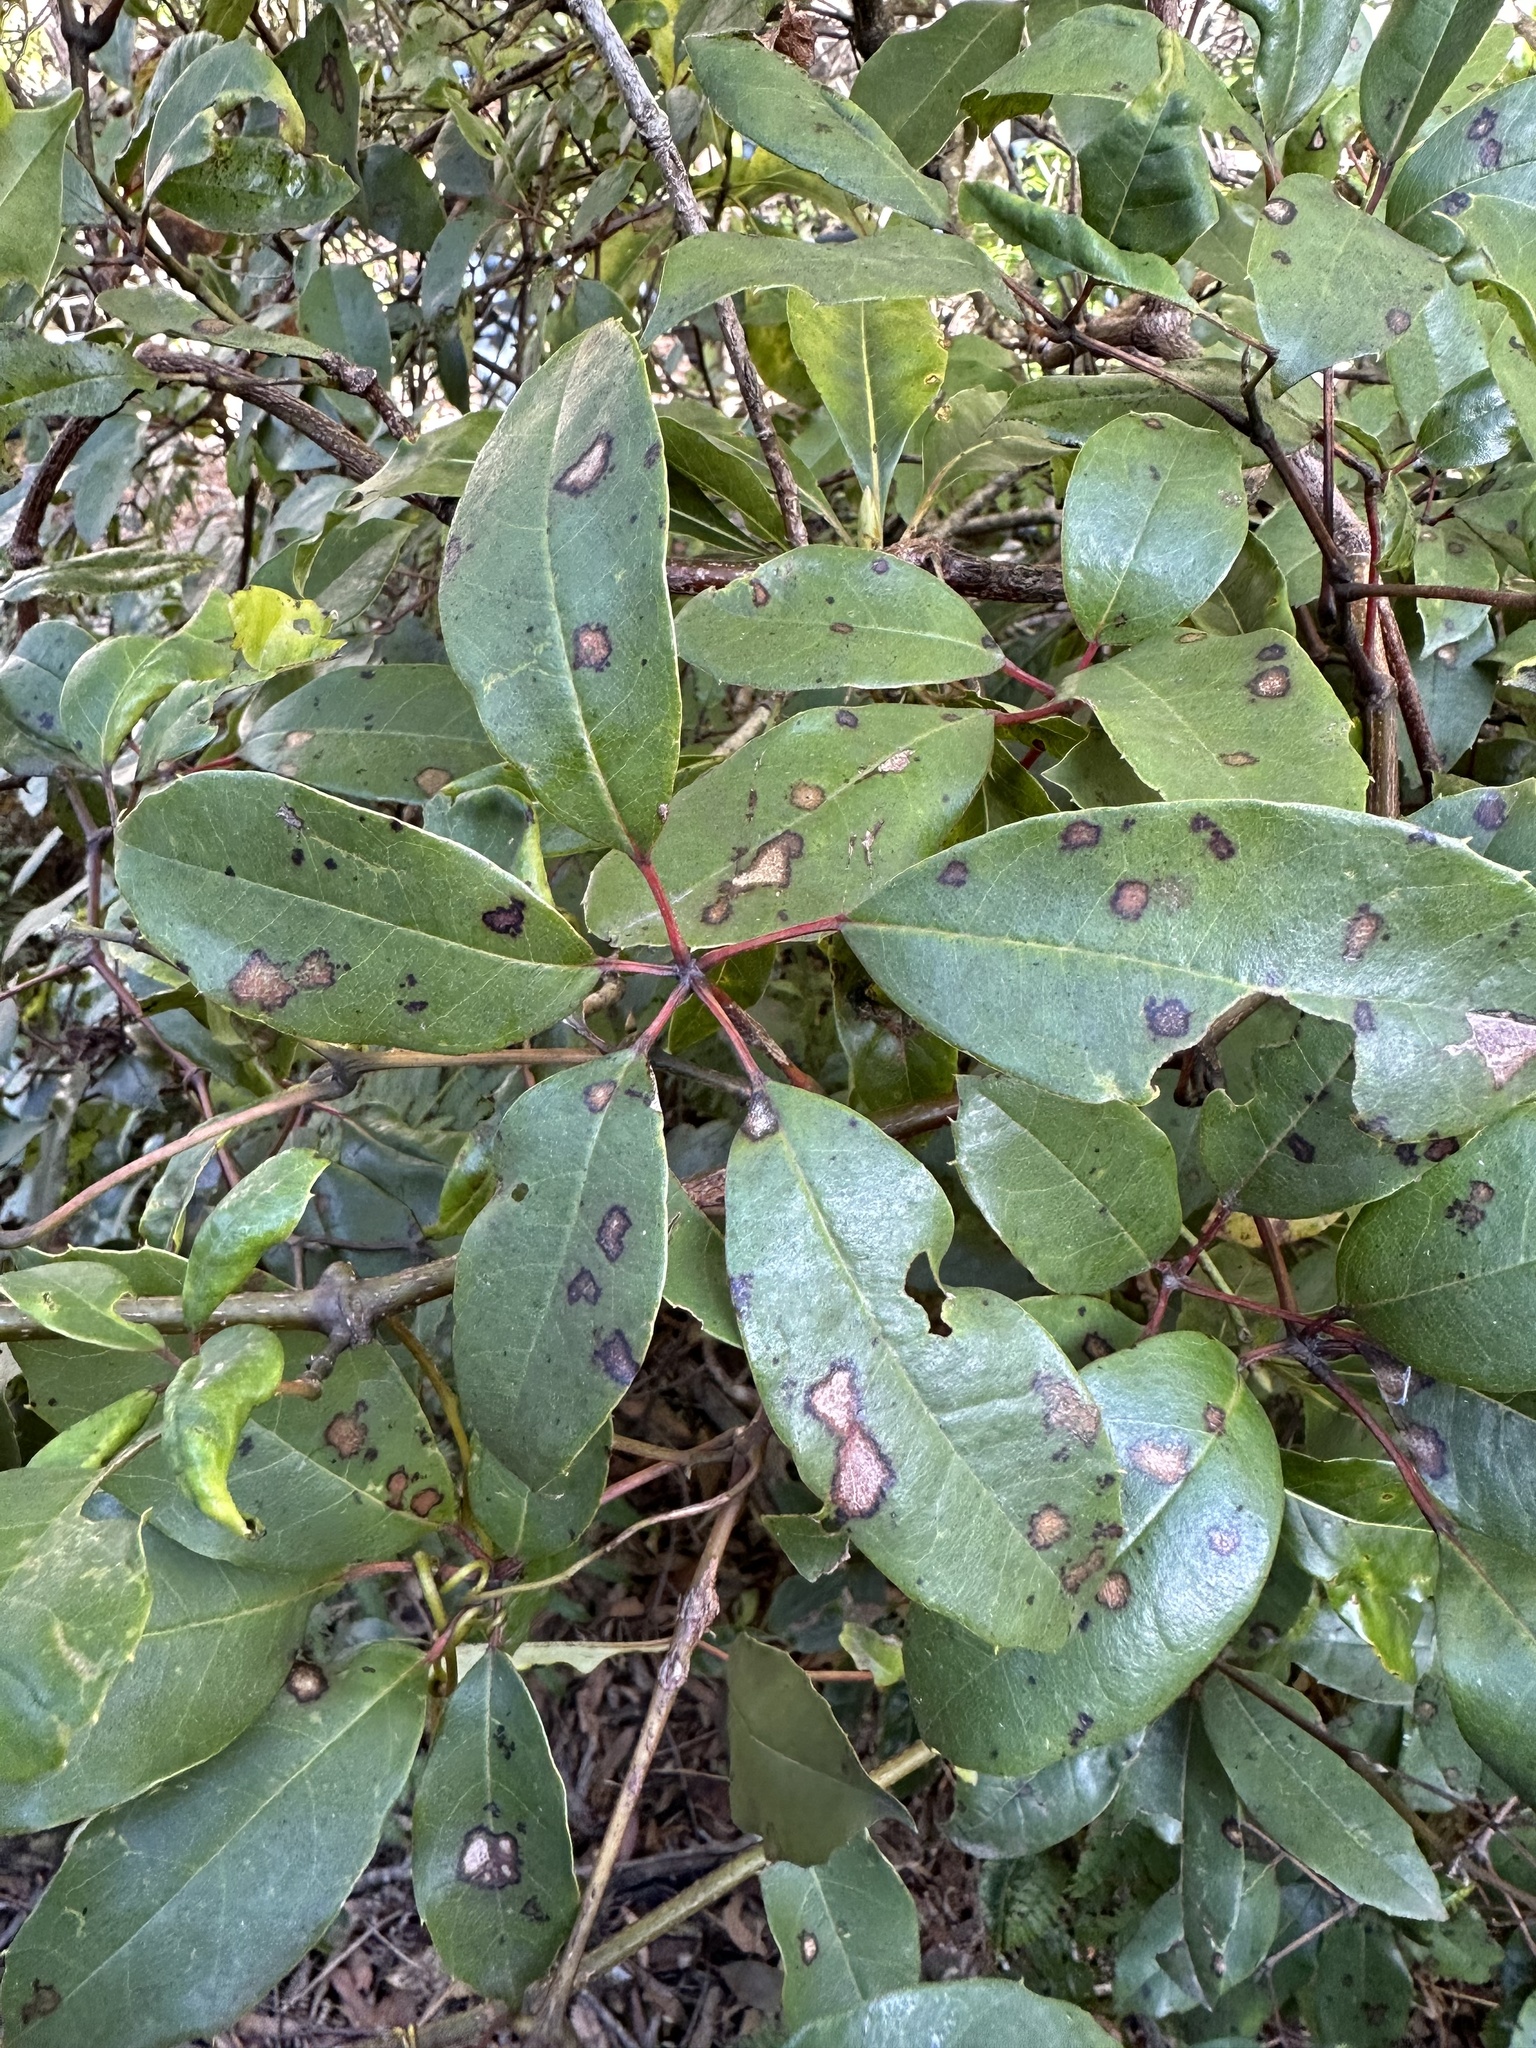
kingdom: Plantae
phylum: Tracheophyta
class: Magnoliopsida
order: Vitales
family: Vitaceae
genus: Nothocissus
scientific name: Nothocissus hypoglauca
